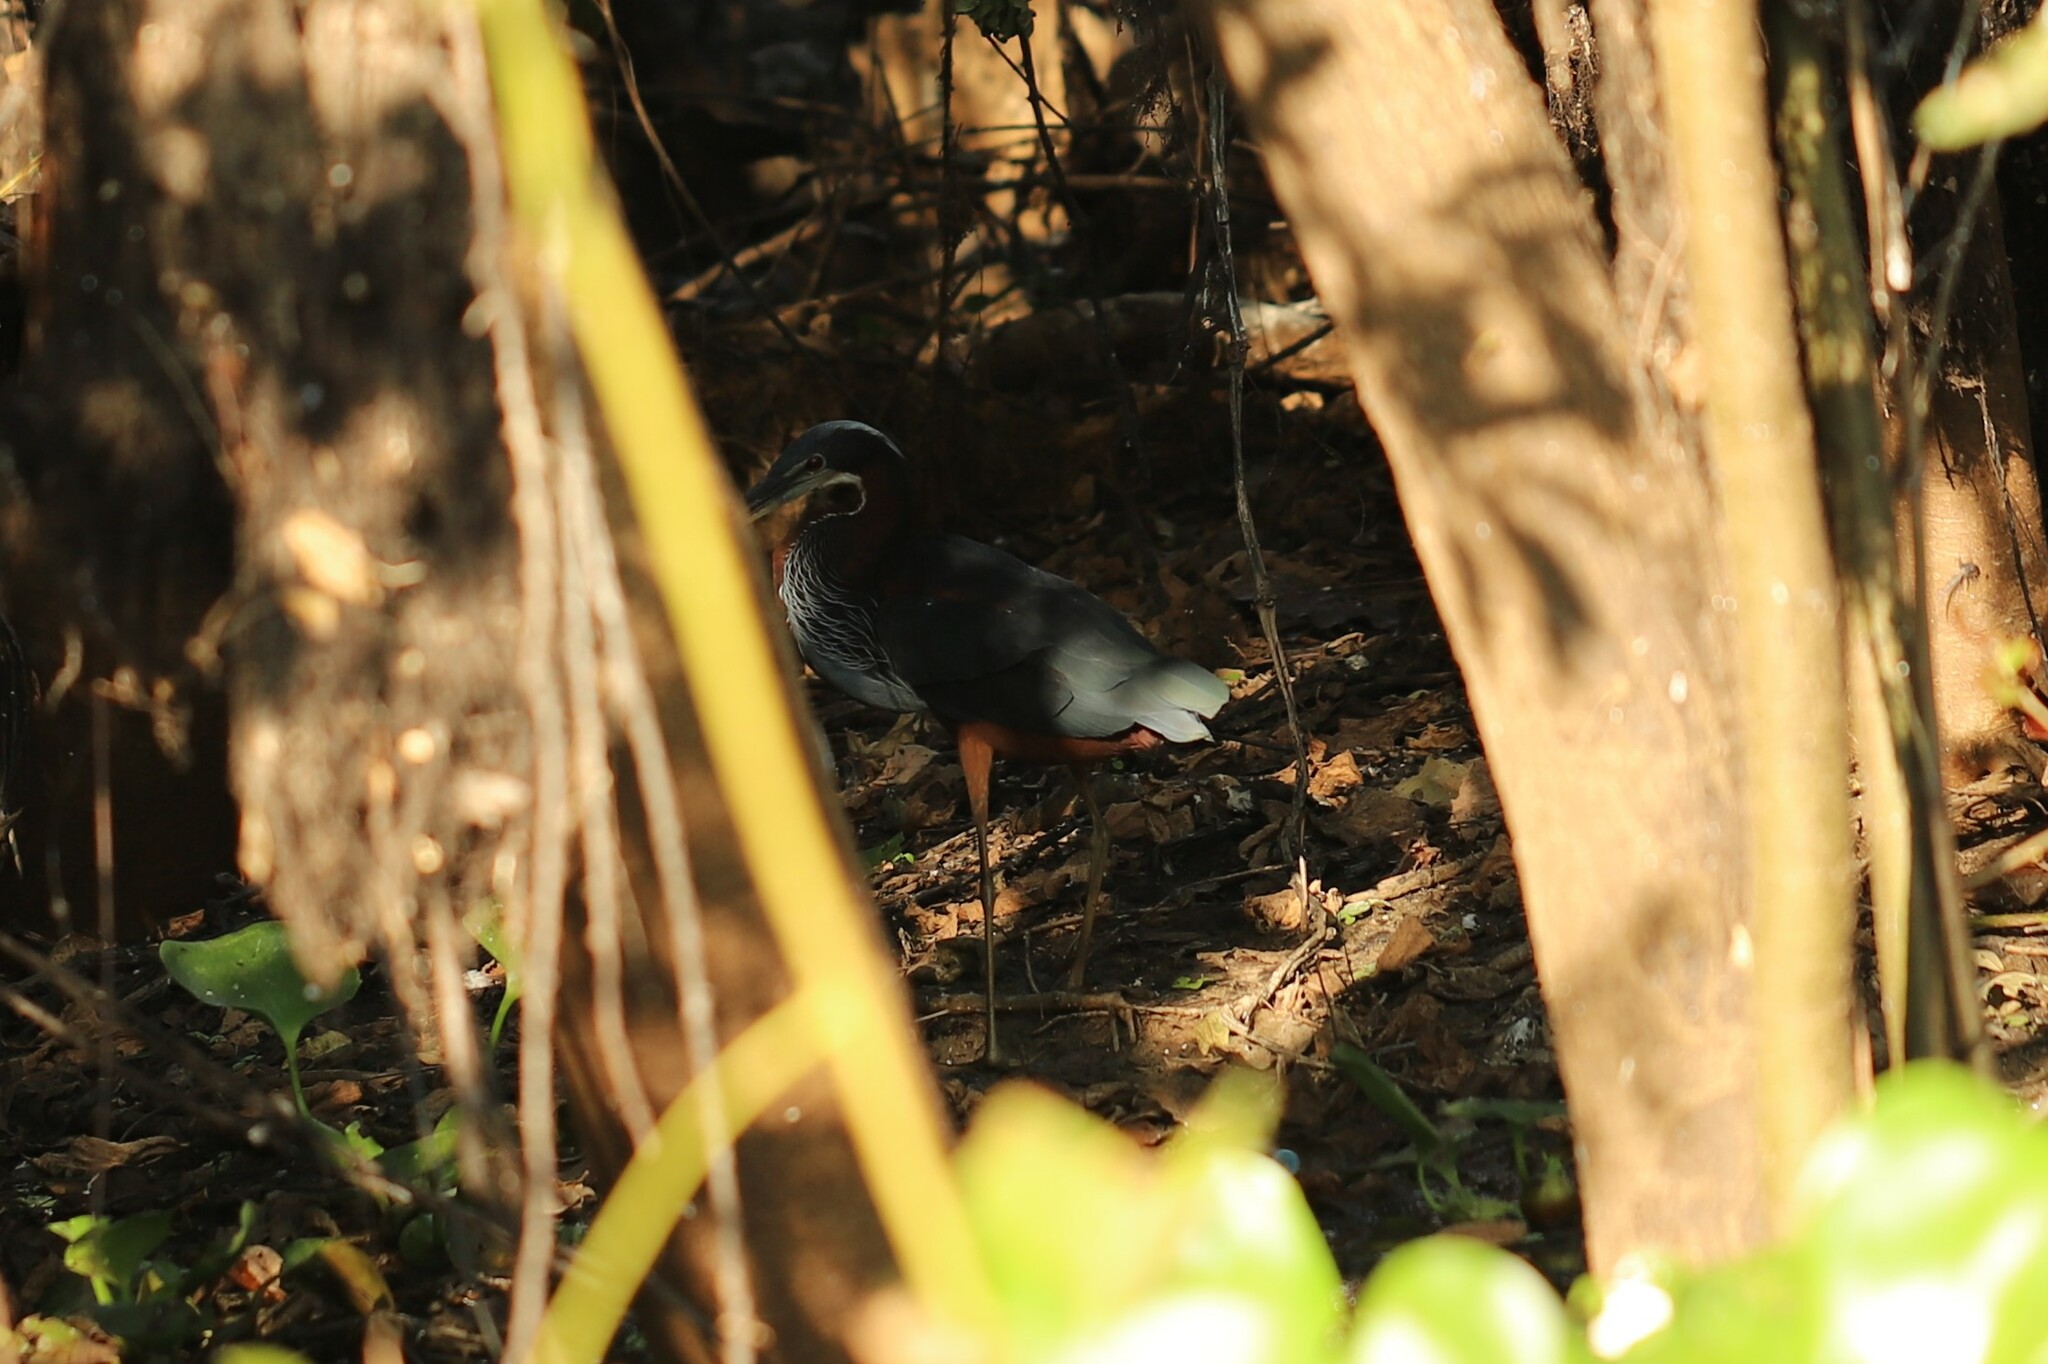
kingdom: Animalia
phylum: Chordata
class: Aves
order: Pelecaniformes
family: Ardeidae
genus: Agamia
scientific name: Agamia agami
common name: Agami heron
